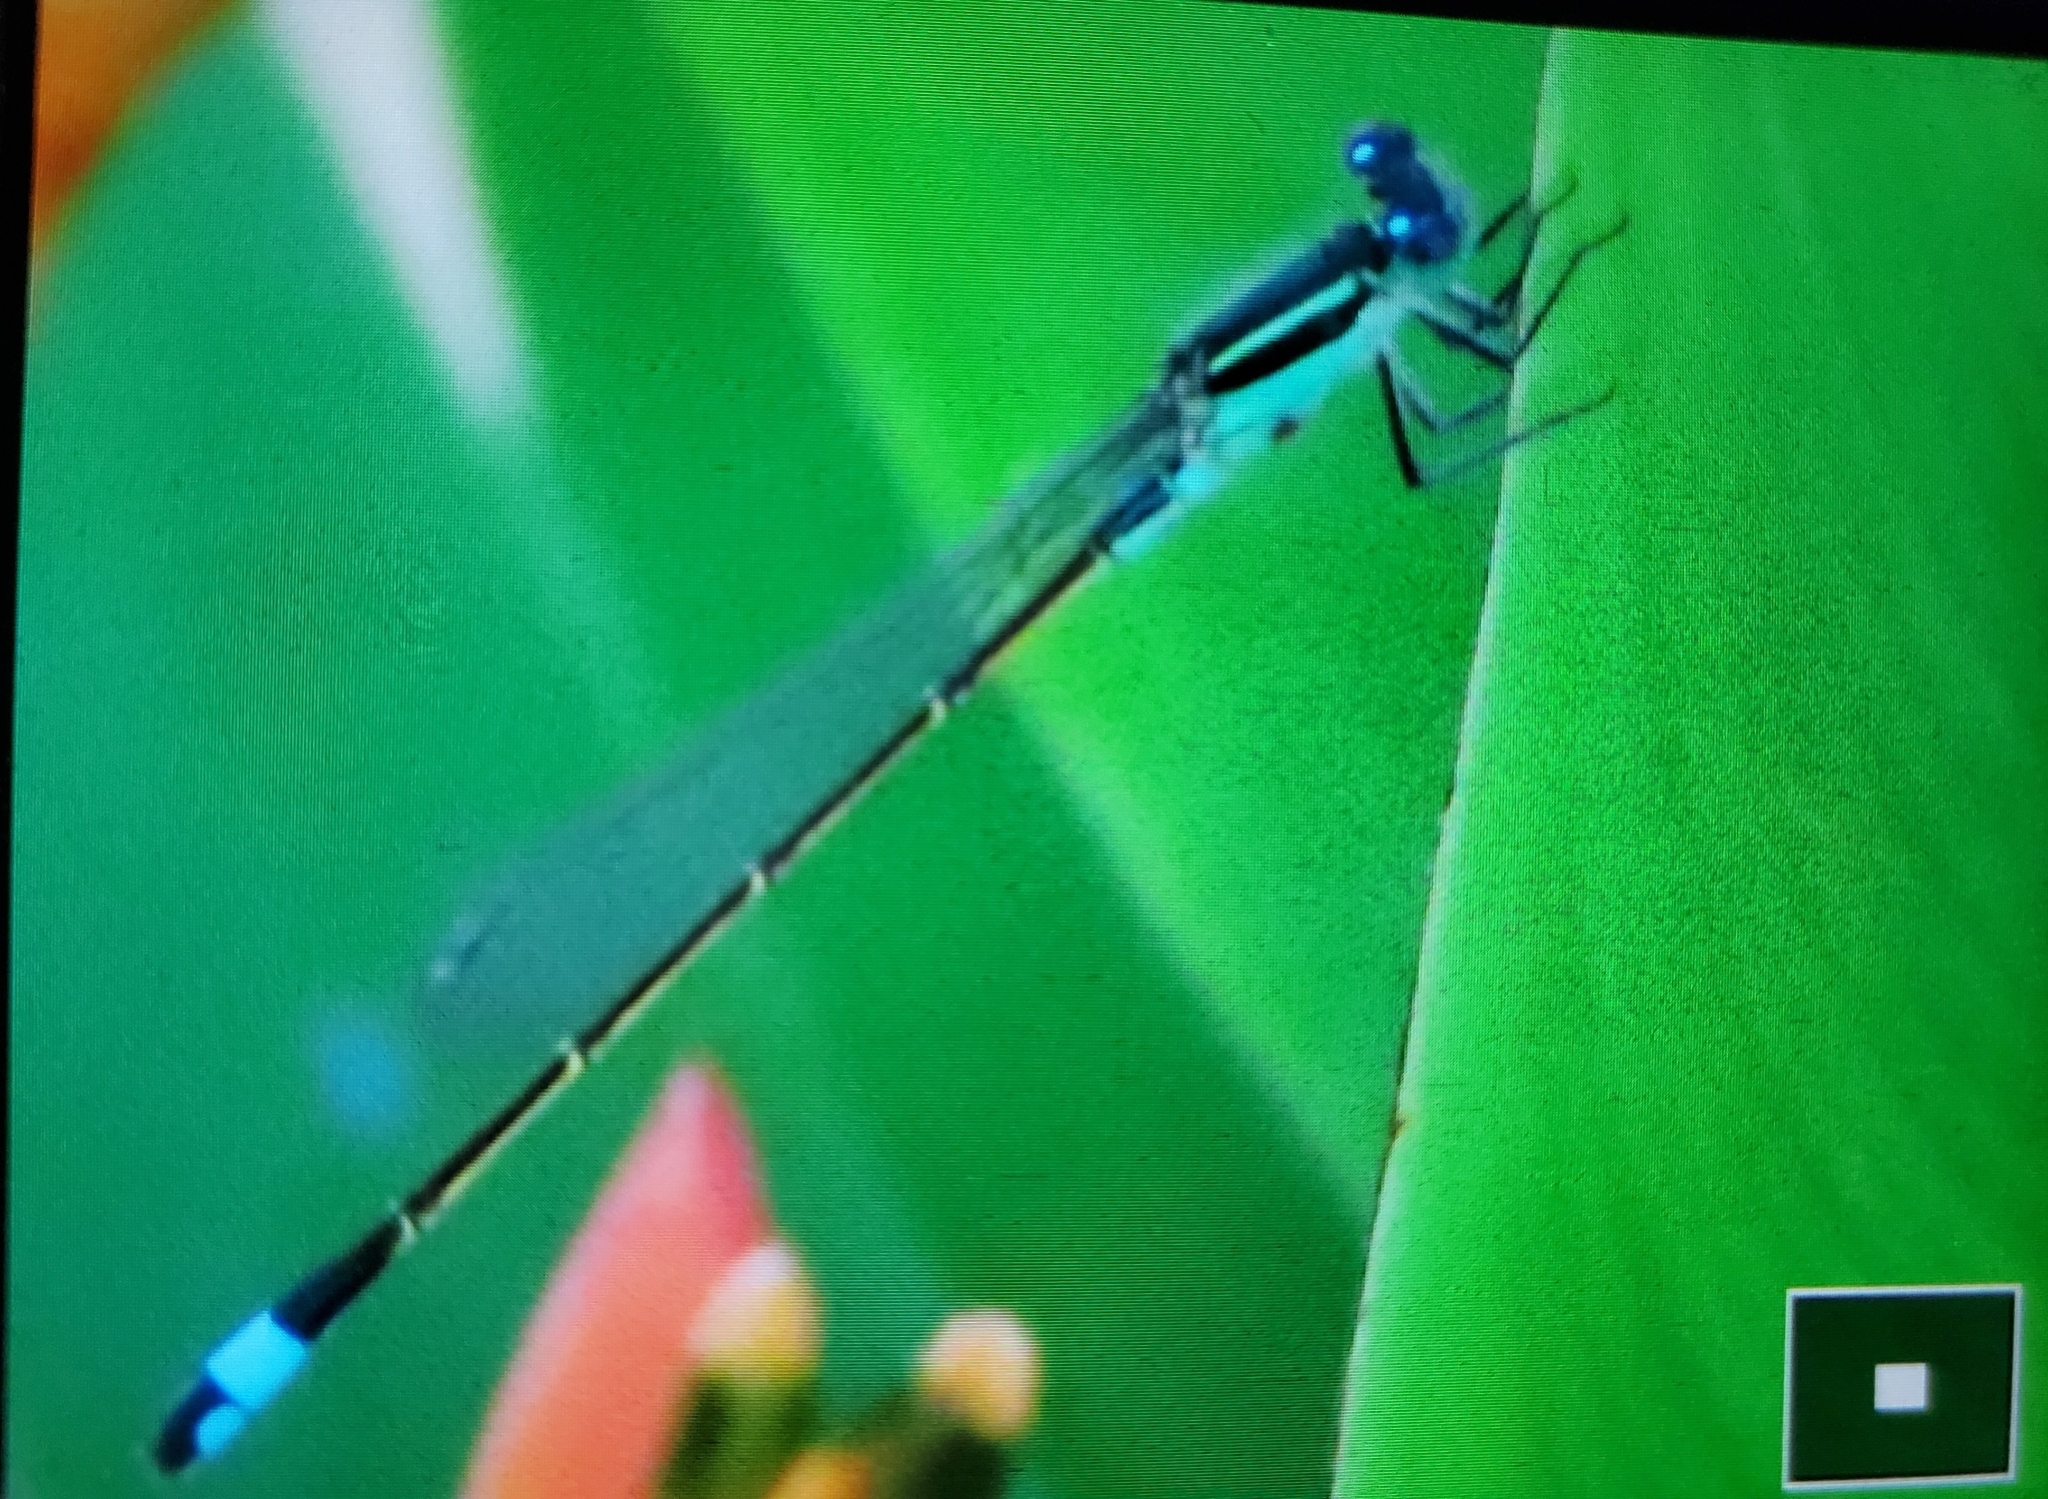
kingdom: Animalia
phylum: Arthropoda
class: Insecta
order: Odonata
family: Coenagrionidae
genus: Ischnura
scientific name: Ischnura ramburii
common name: Rambur's forktail
